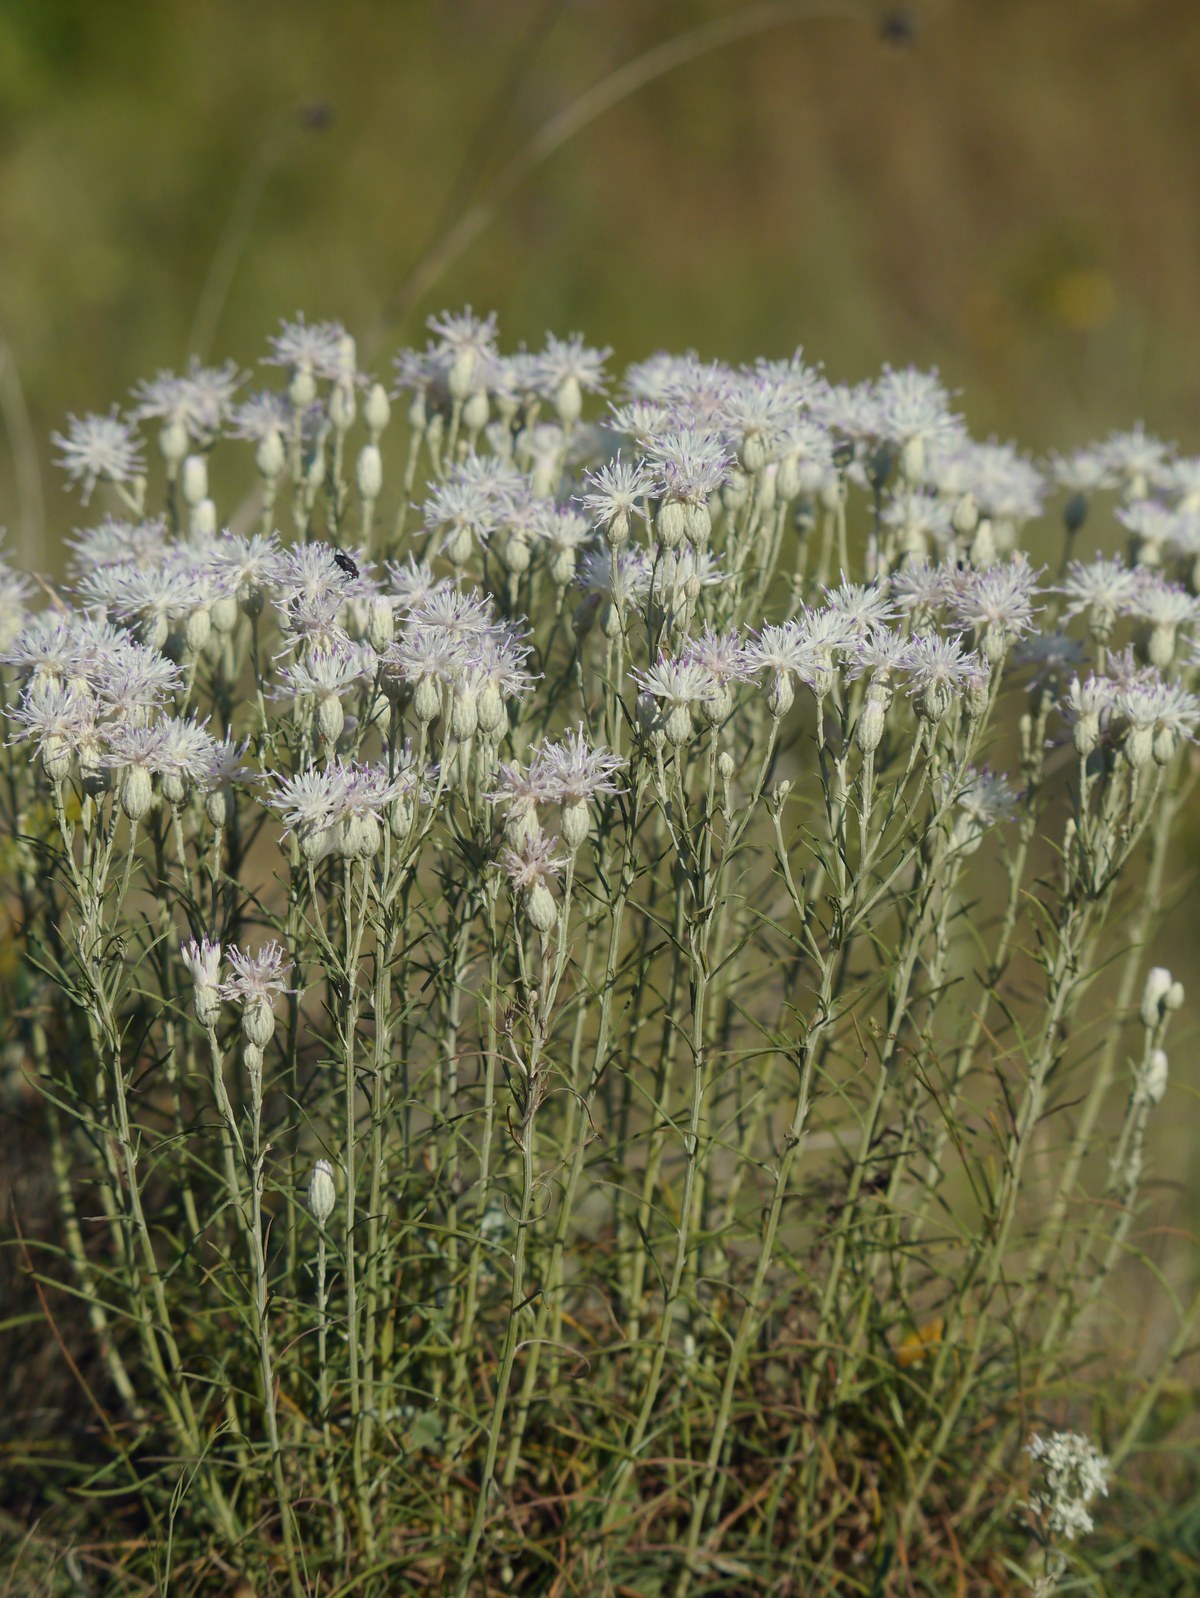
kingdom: Plantae
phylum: Tracheophyta
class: Magnoliopsida
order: Asterales
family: Asteraceae
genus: Jurinea
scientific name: Jurinea stoechadifolia
